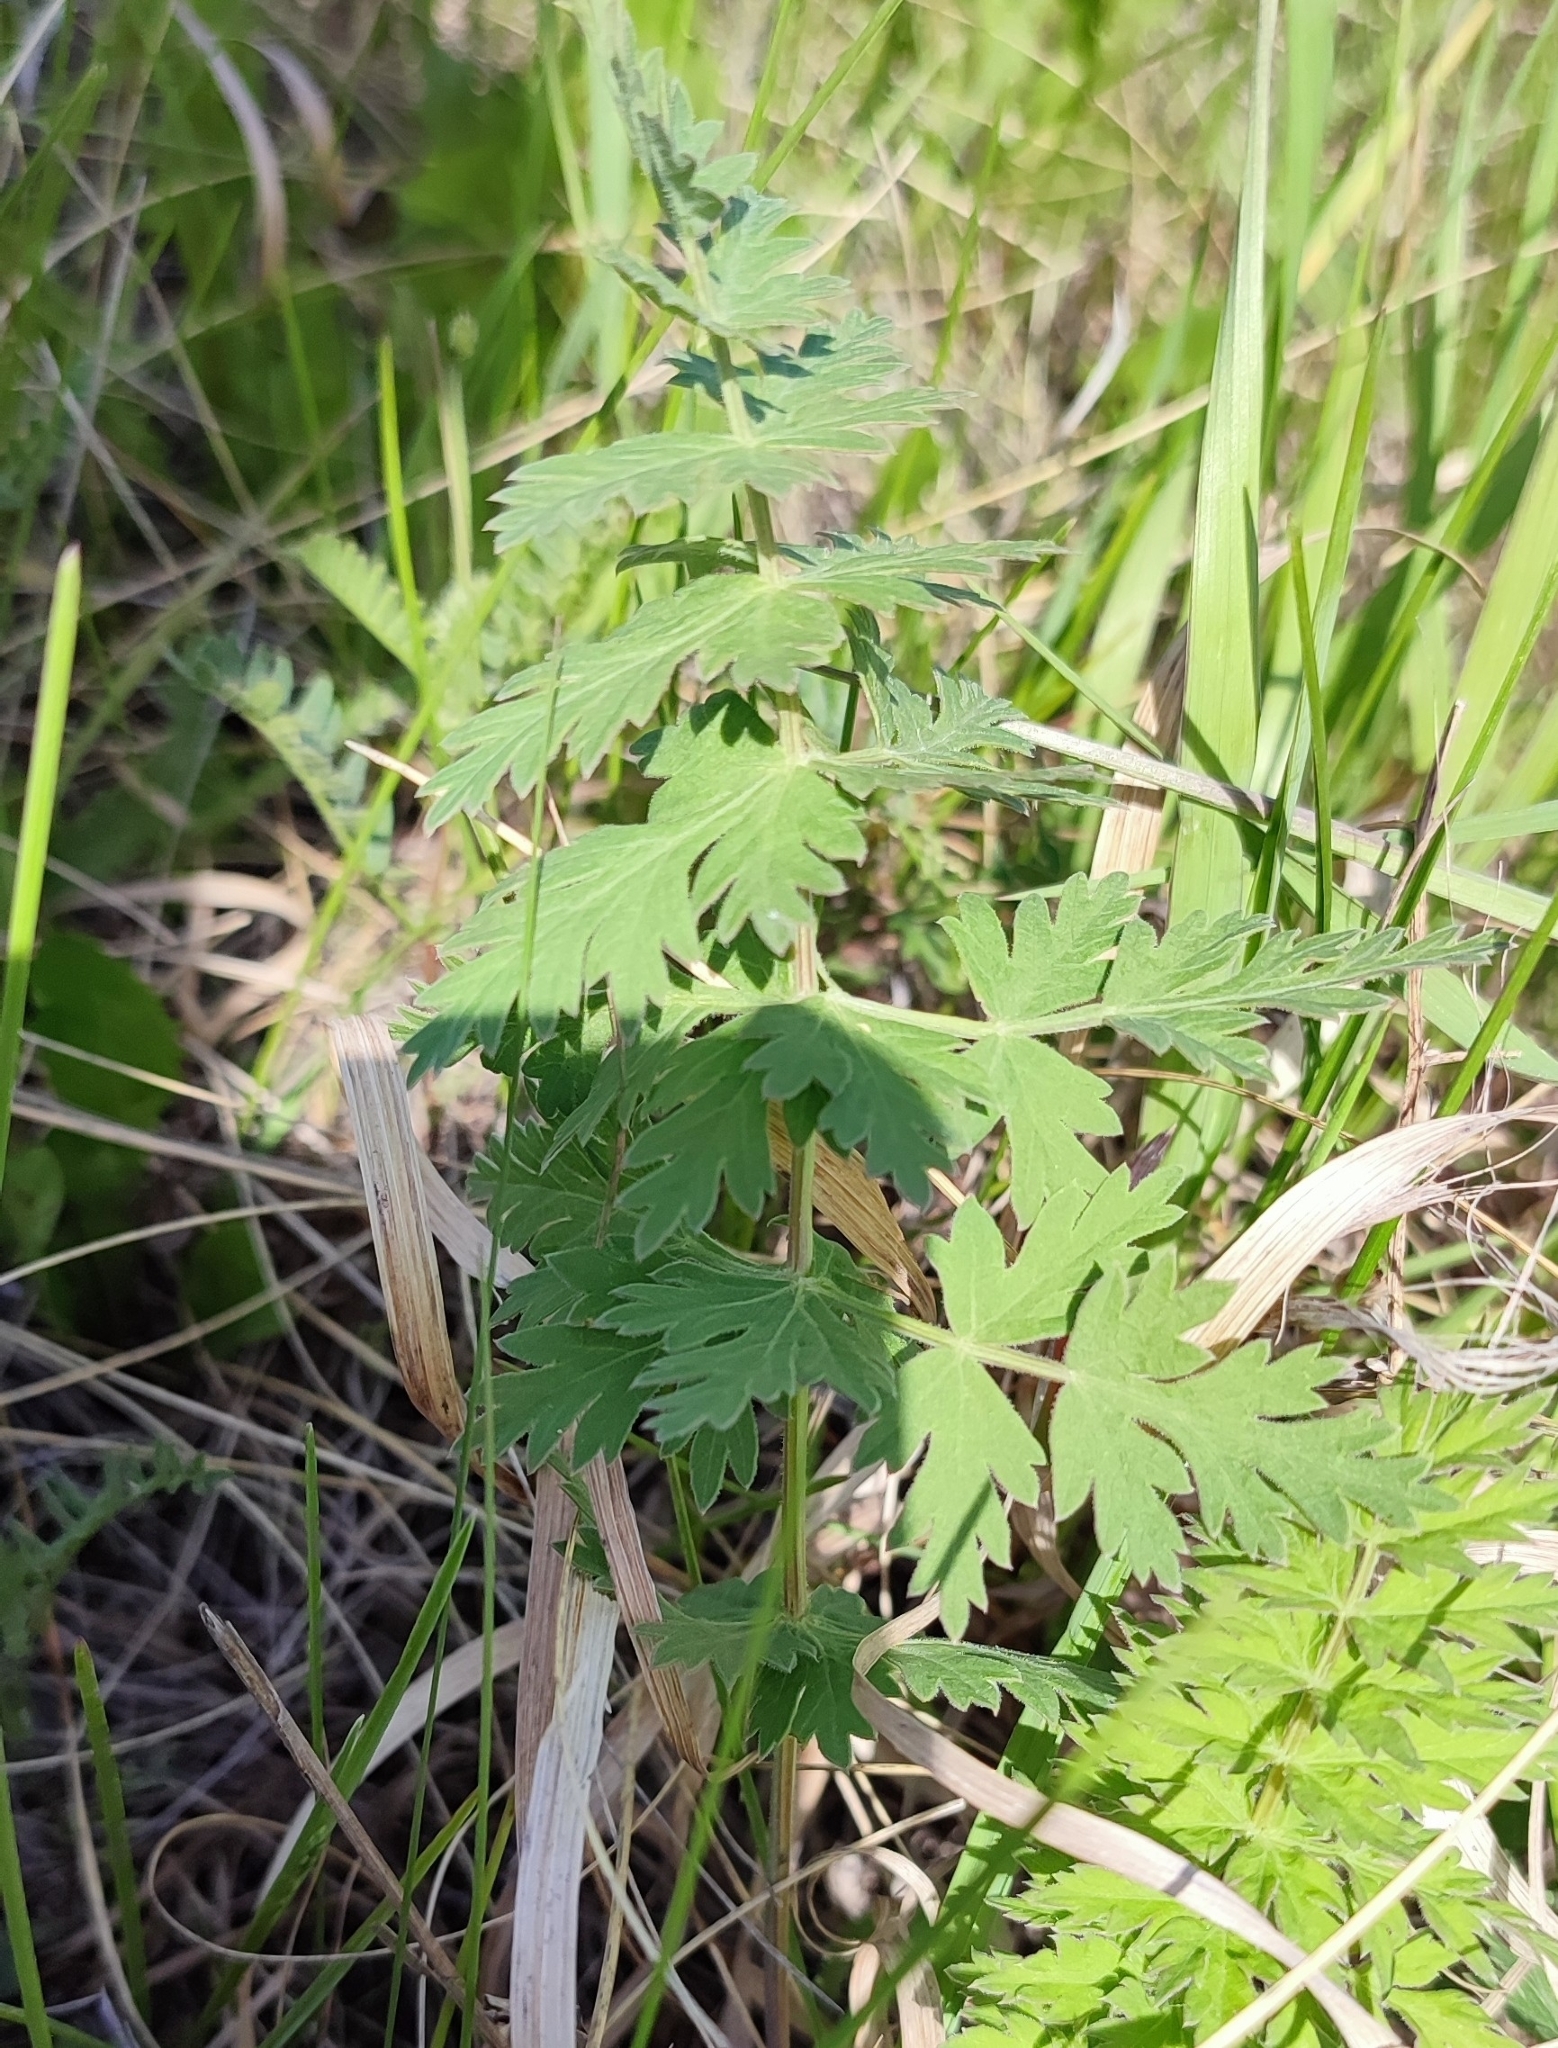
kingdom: Plantae
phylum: Tracheophyta
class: Magnoliopsida
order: Apiales
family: Apiaceae
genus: Seseli
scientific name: Seseli libanotis
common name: Mooncarrot
